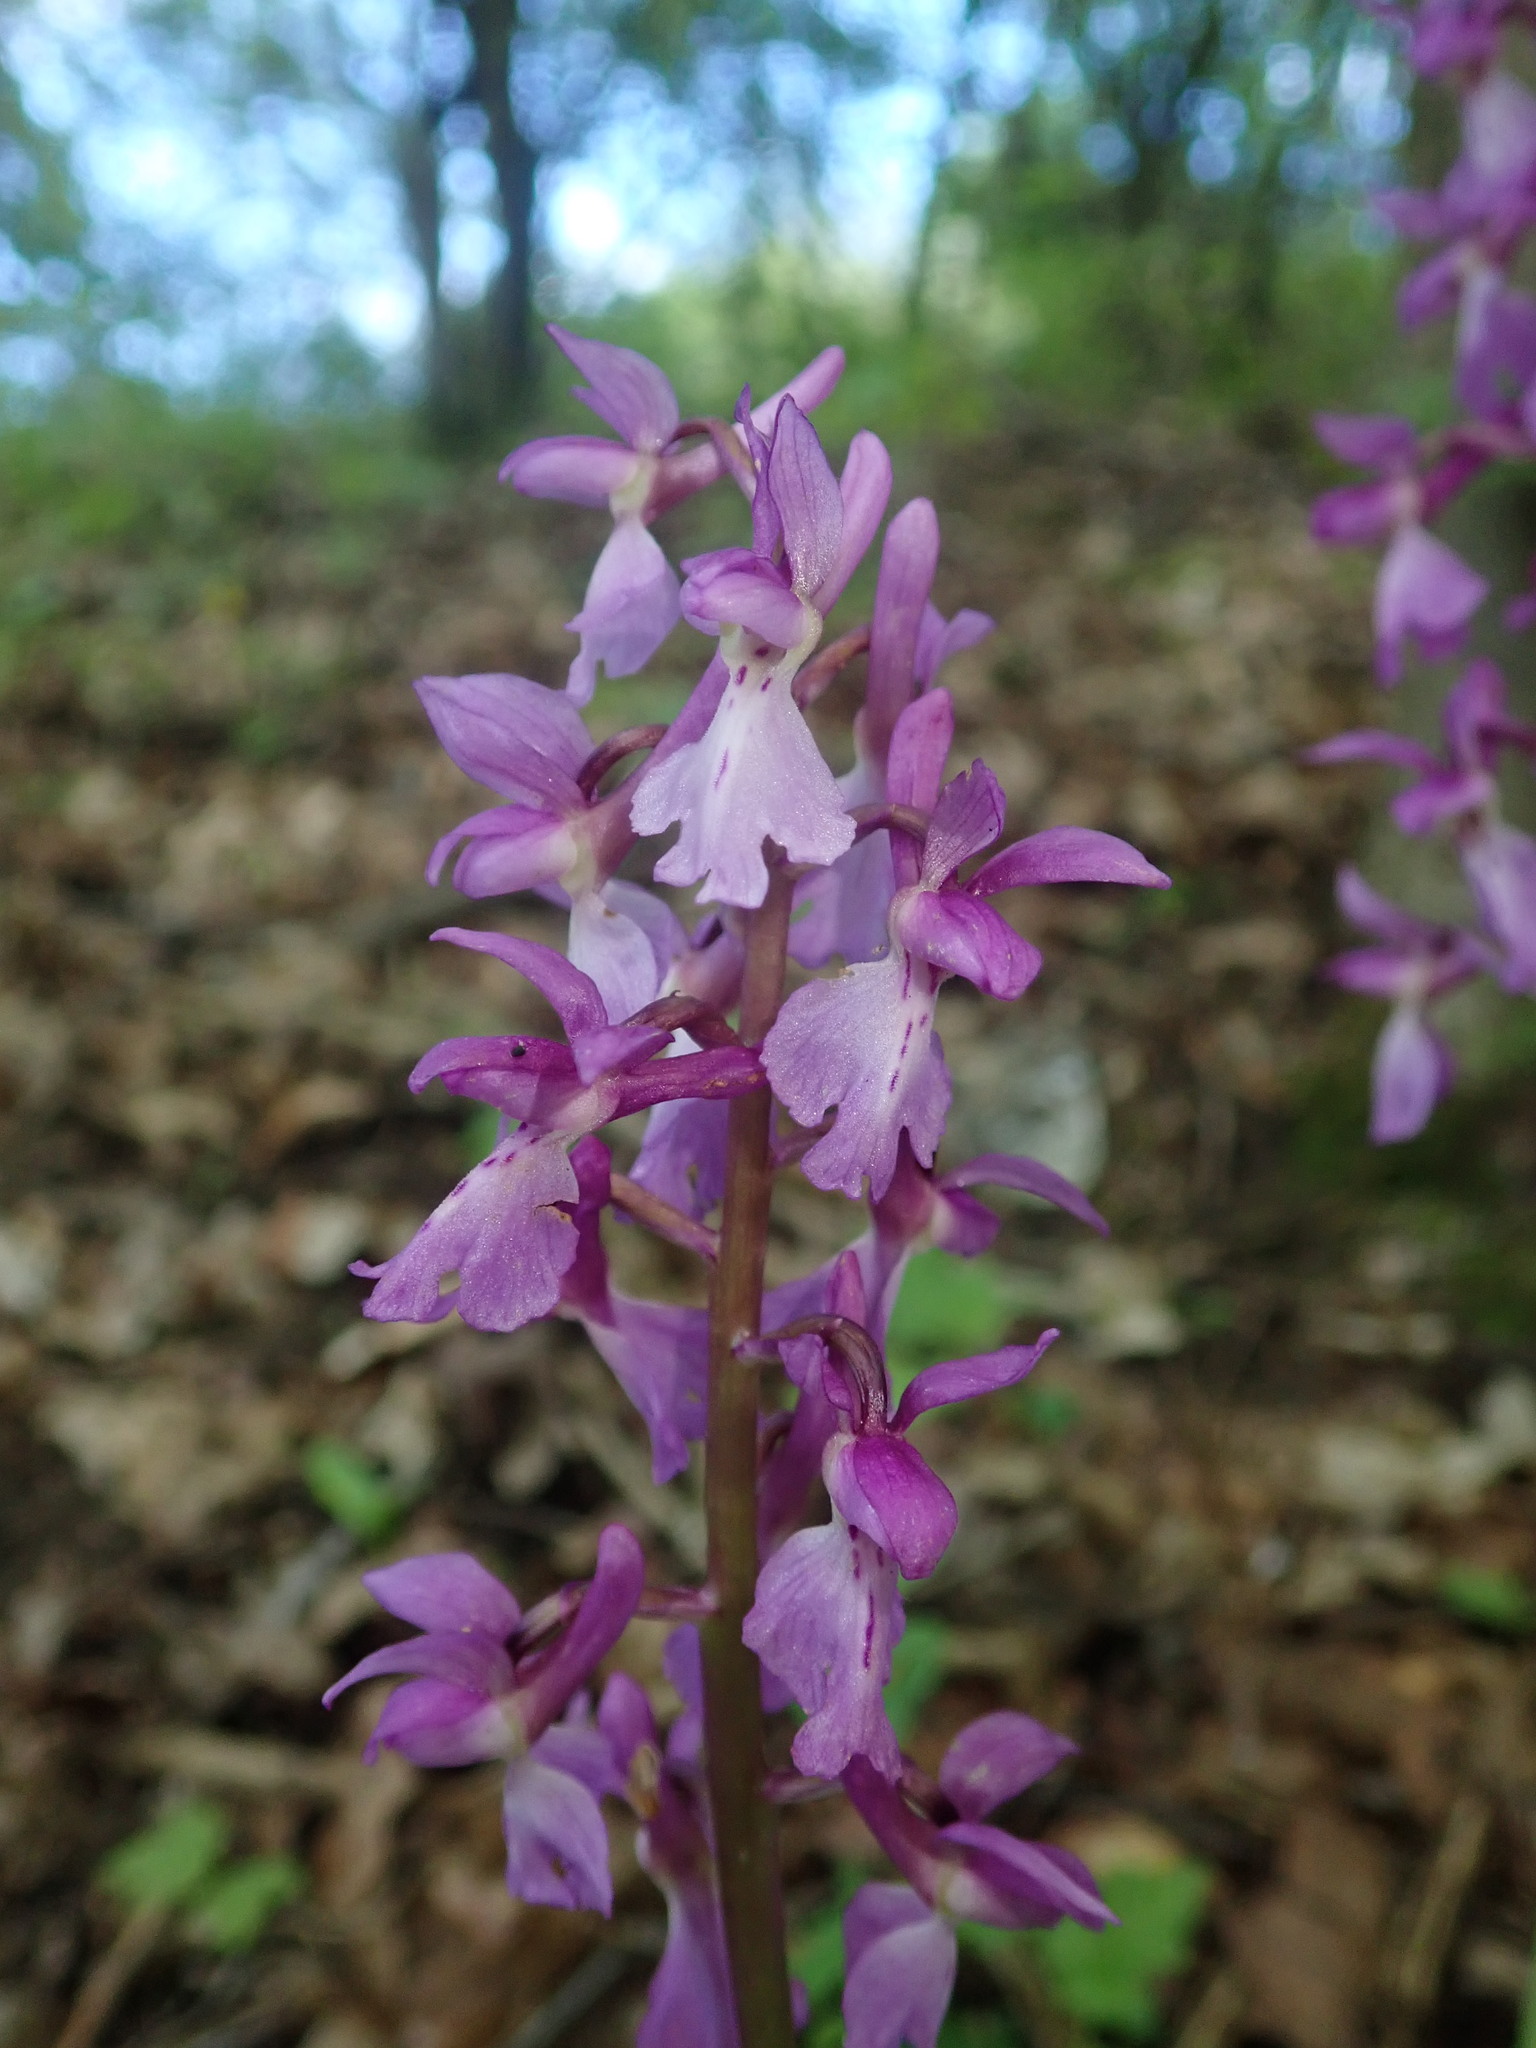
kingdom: Plantae
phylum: Tracheophyta
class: Liliopsida
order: Asparagales
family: Orchidaceae
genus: Orchis
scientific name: Orchis mascula
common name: Early-purple orchid
